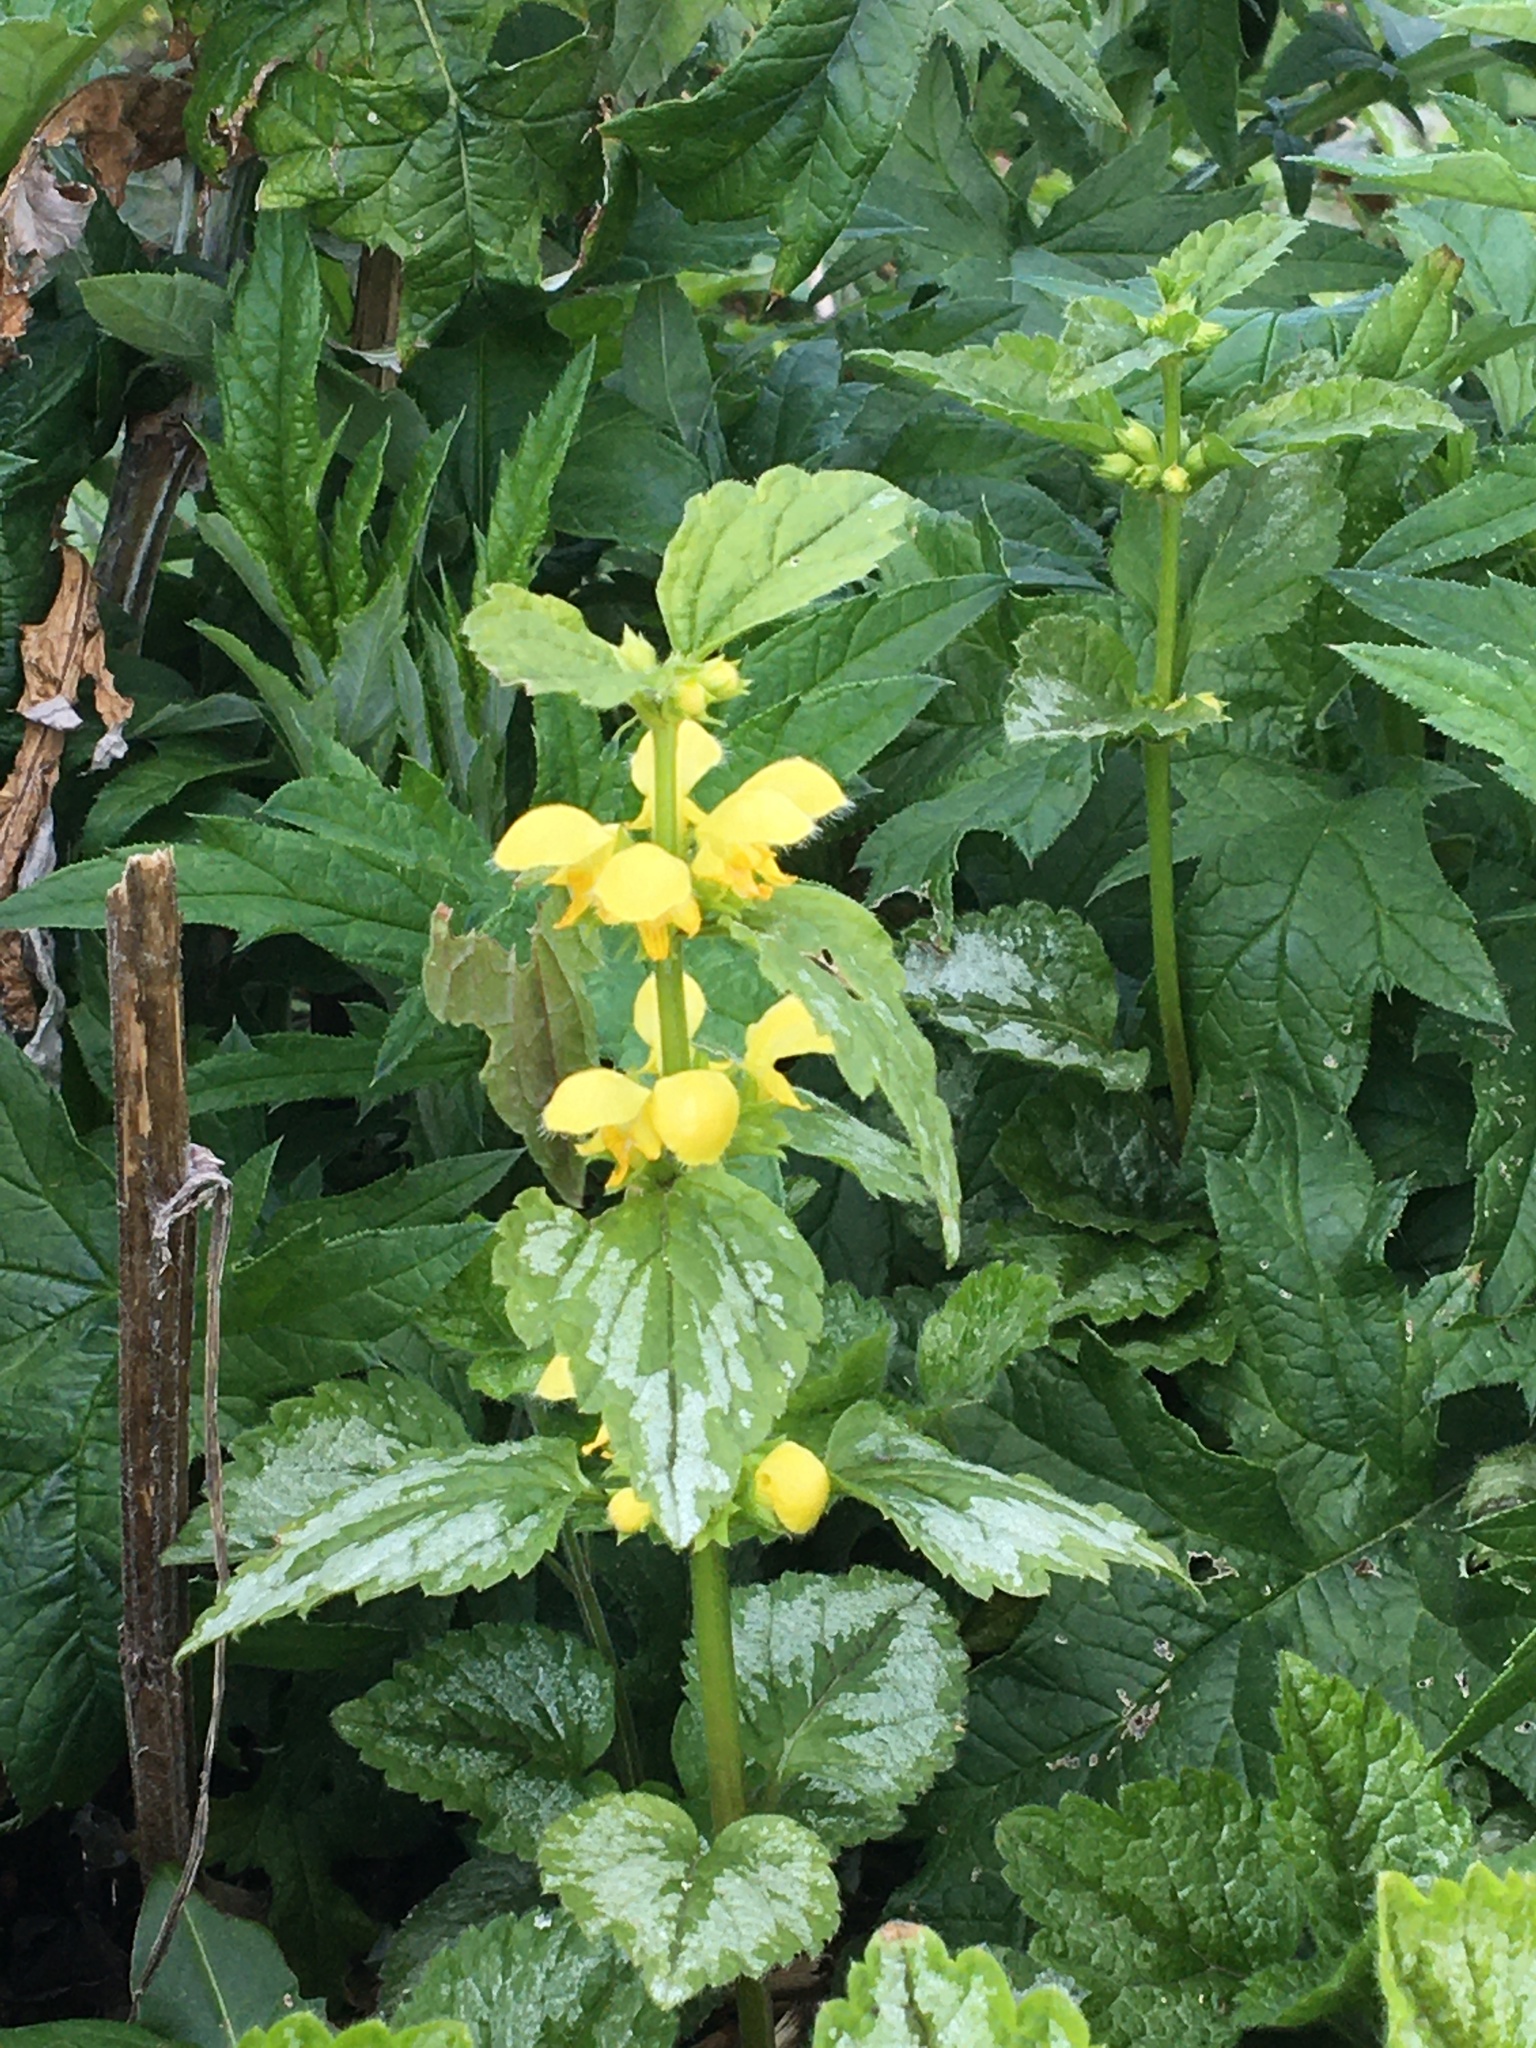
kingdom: Plantae
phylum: Tracheophyta
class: Magnoliopsida
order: Lamiales
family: Lamiaceae
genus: Lamium
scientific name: Lamium galeobdolon
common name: Yellow archangel
